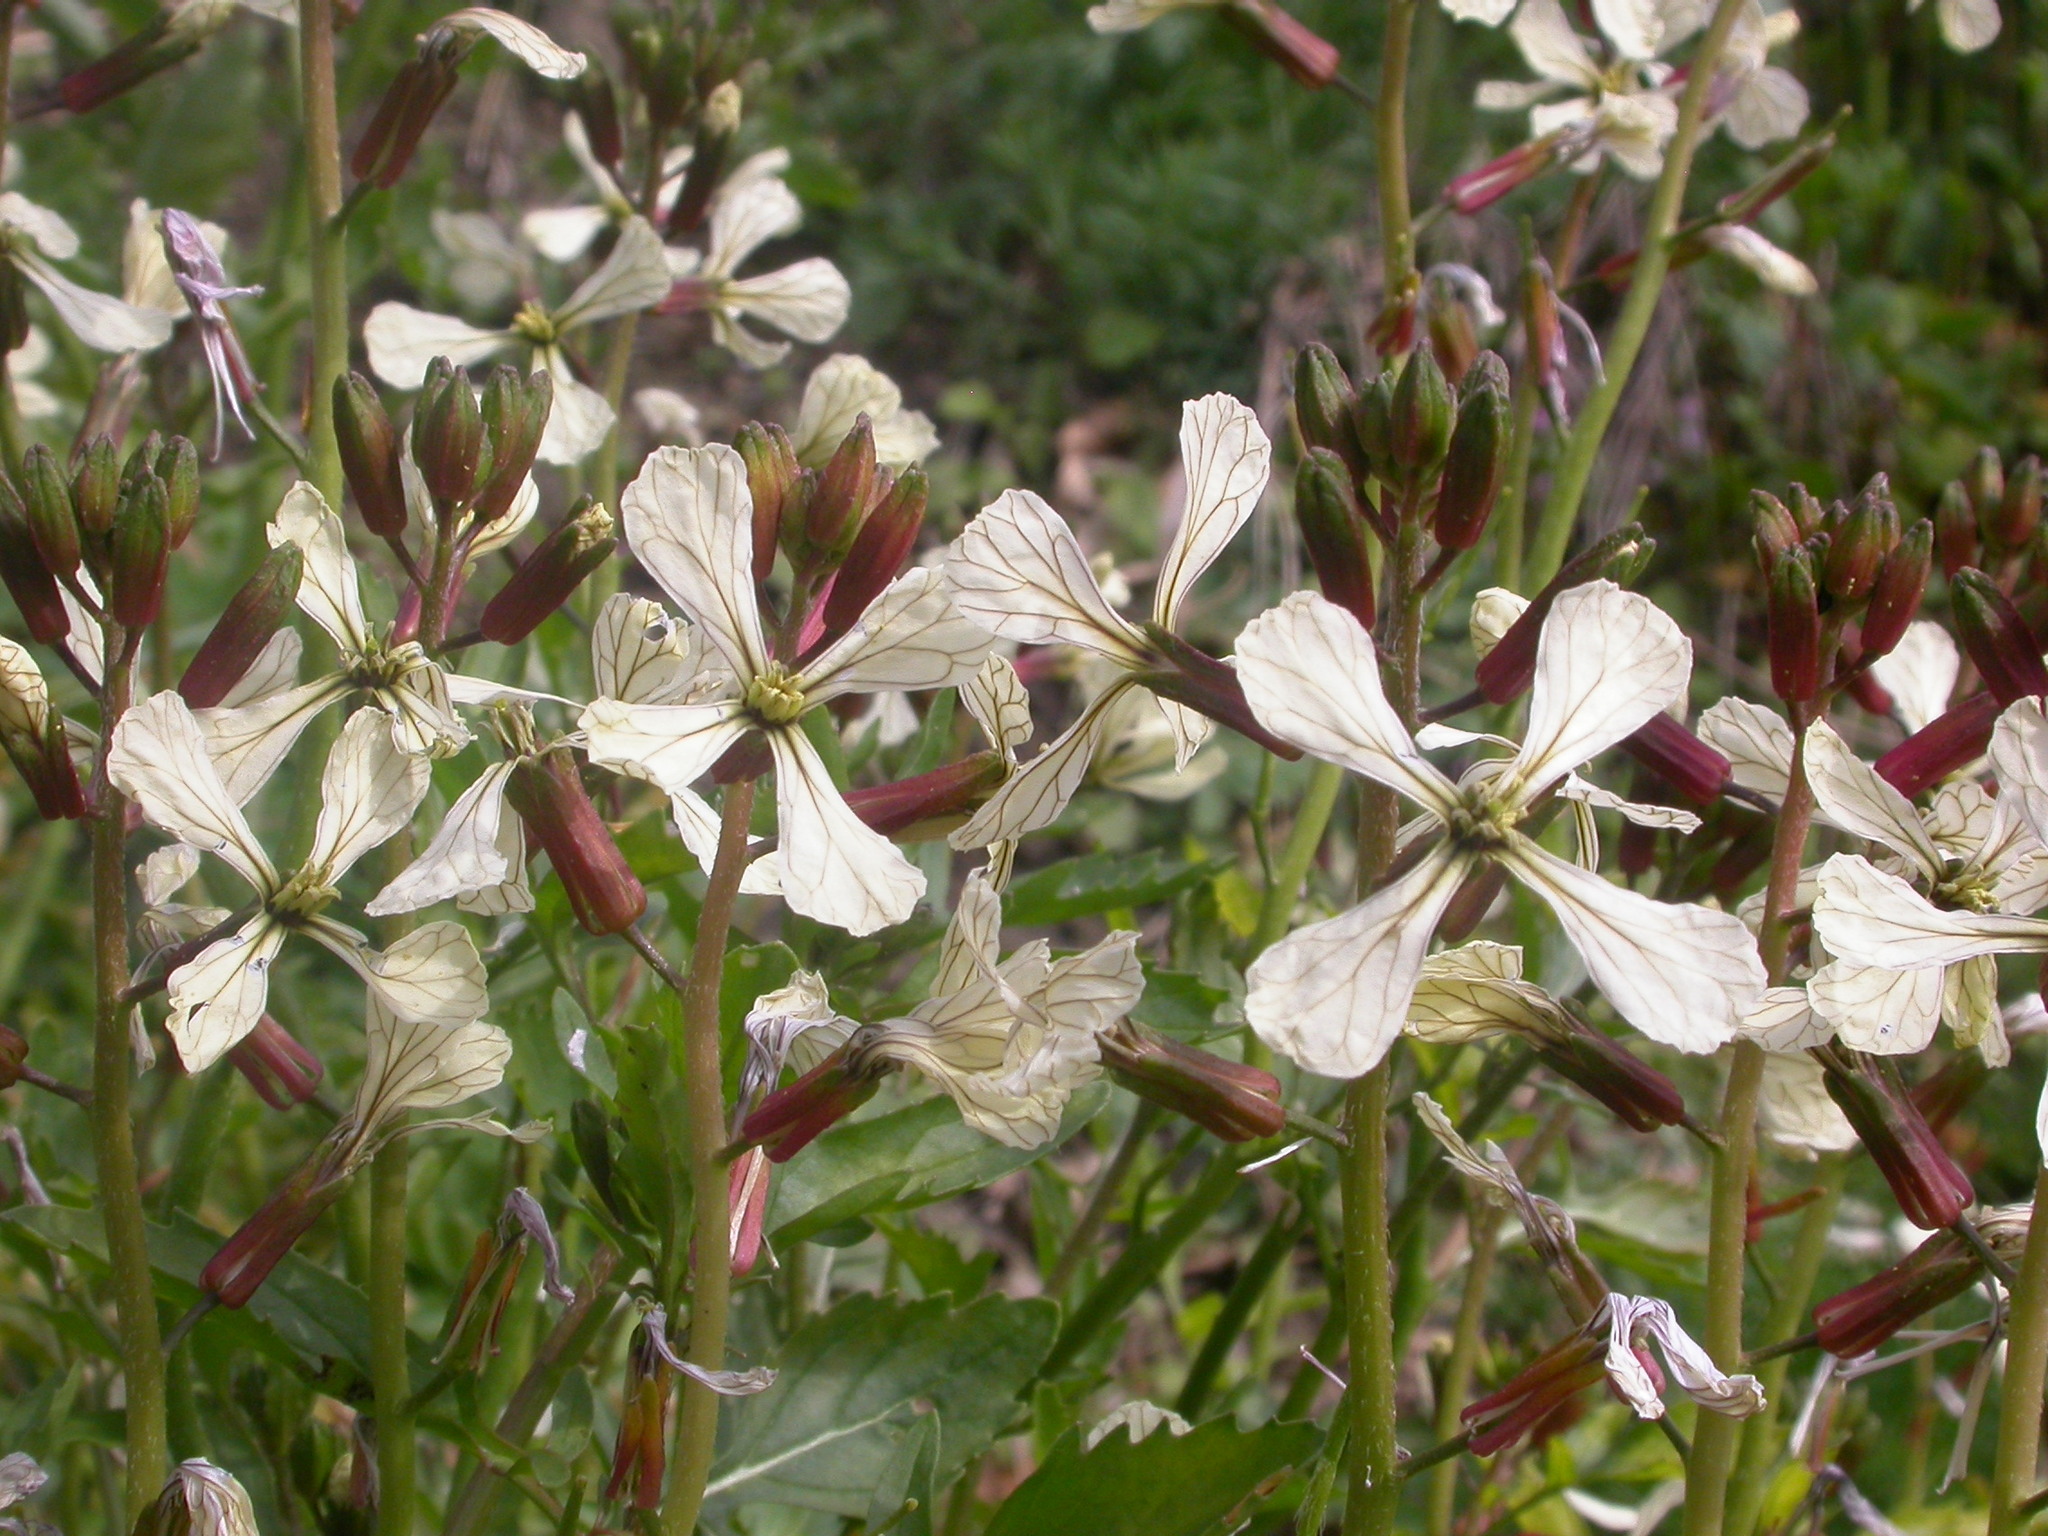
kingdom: Plantae
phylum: Tracheophyta
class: Magnoliopsida
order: Brassicales
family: Brassicaceae
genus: Raphanus
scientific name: Raphanus raphanistrum
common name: Wild radish
